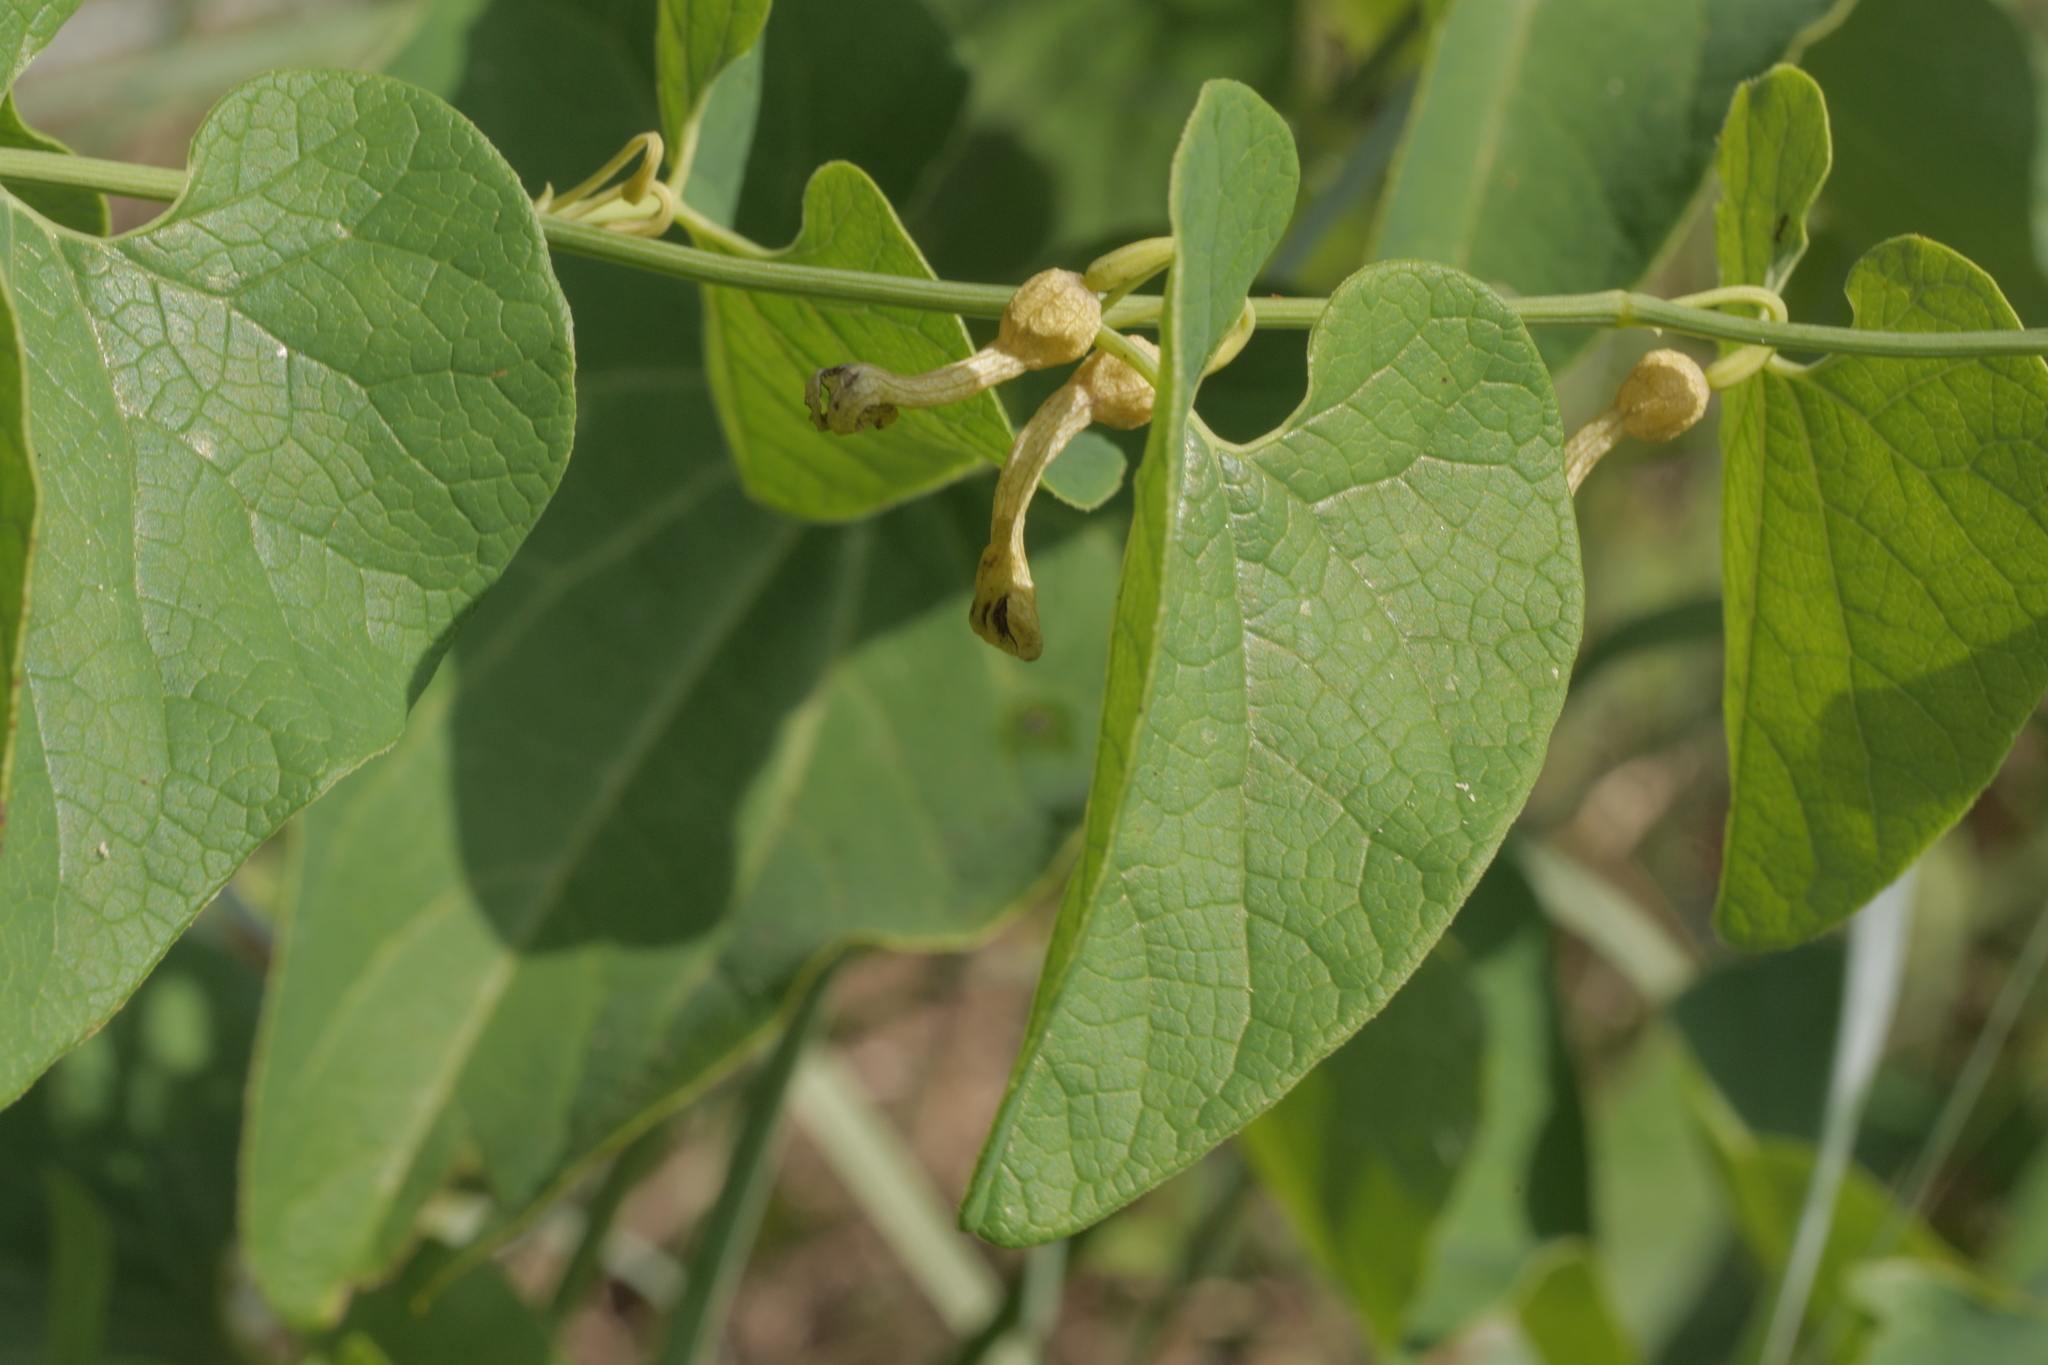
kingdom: Plantae
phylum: Tracheophyta
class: Magnoliopsida
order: Piperales
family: Aristolochiaceae
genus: Aristolochia
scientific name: Aristolochia clematitis
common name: Birthwort
